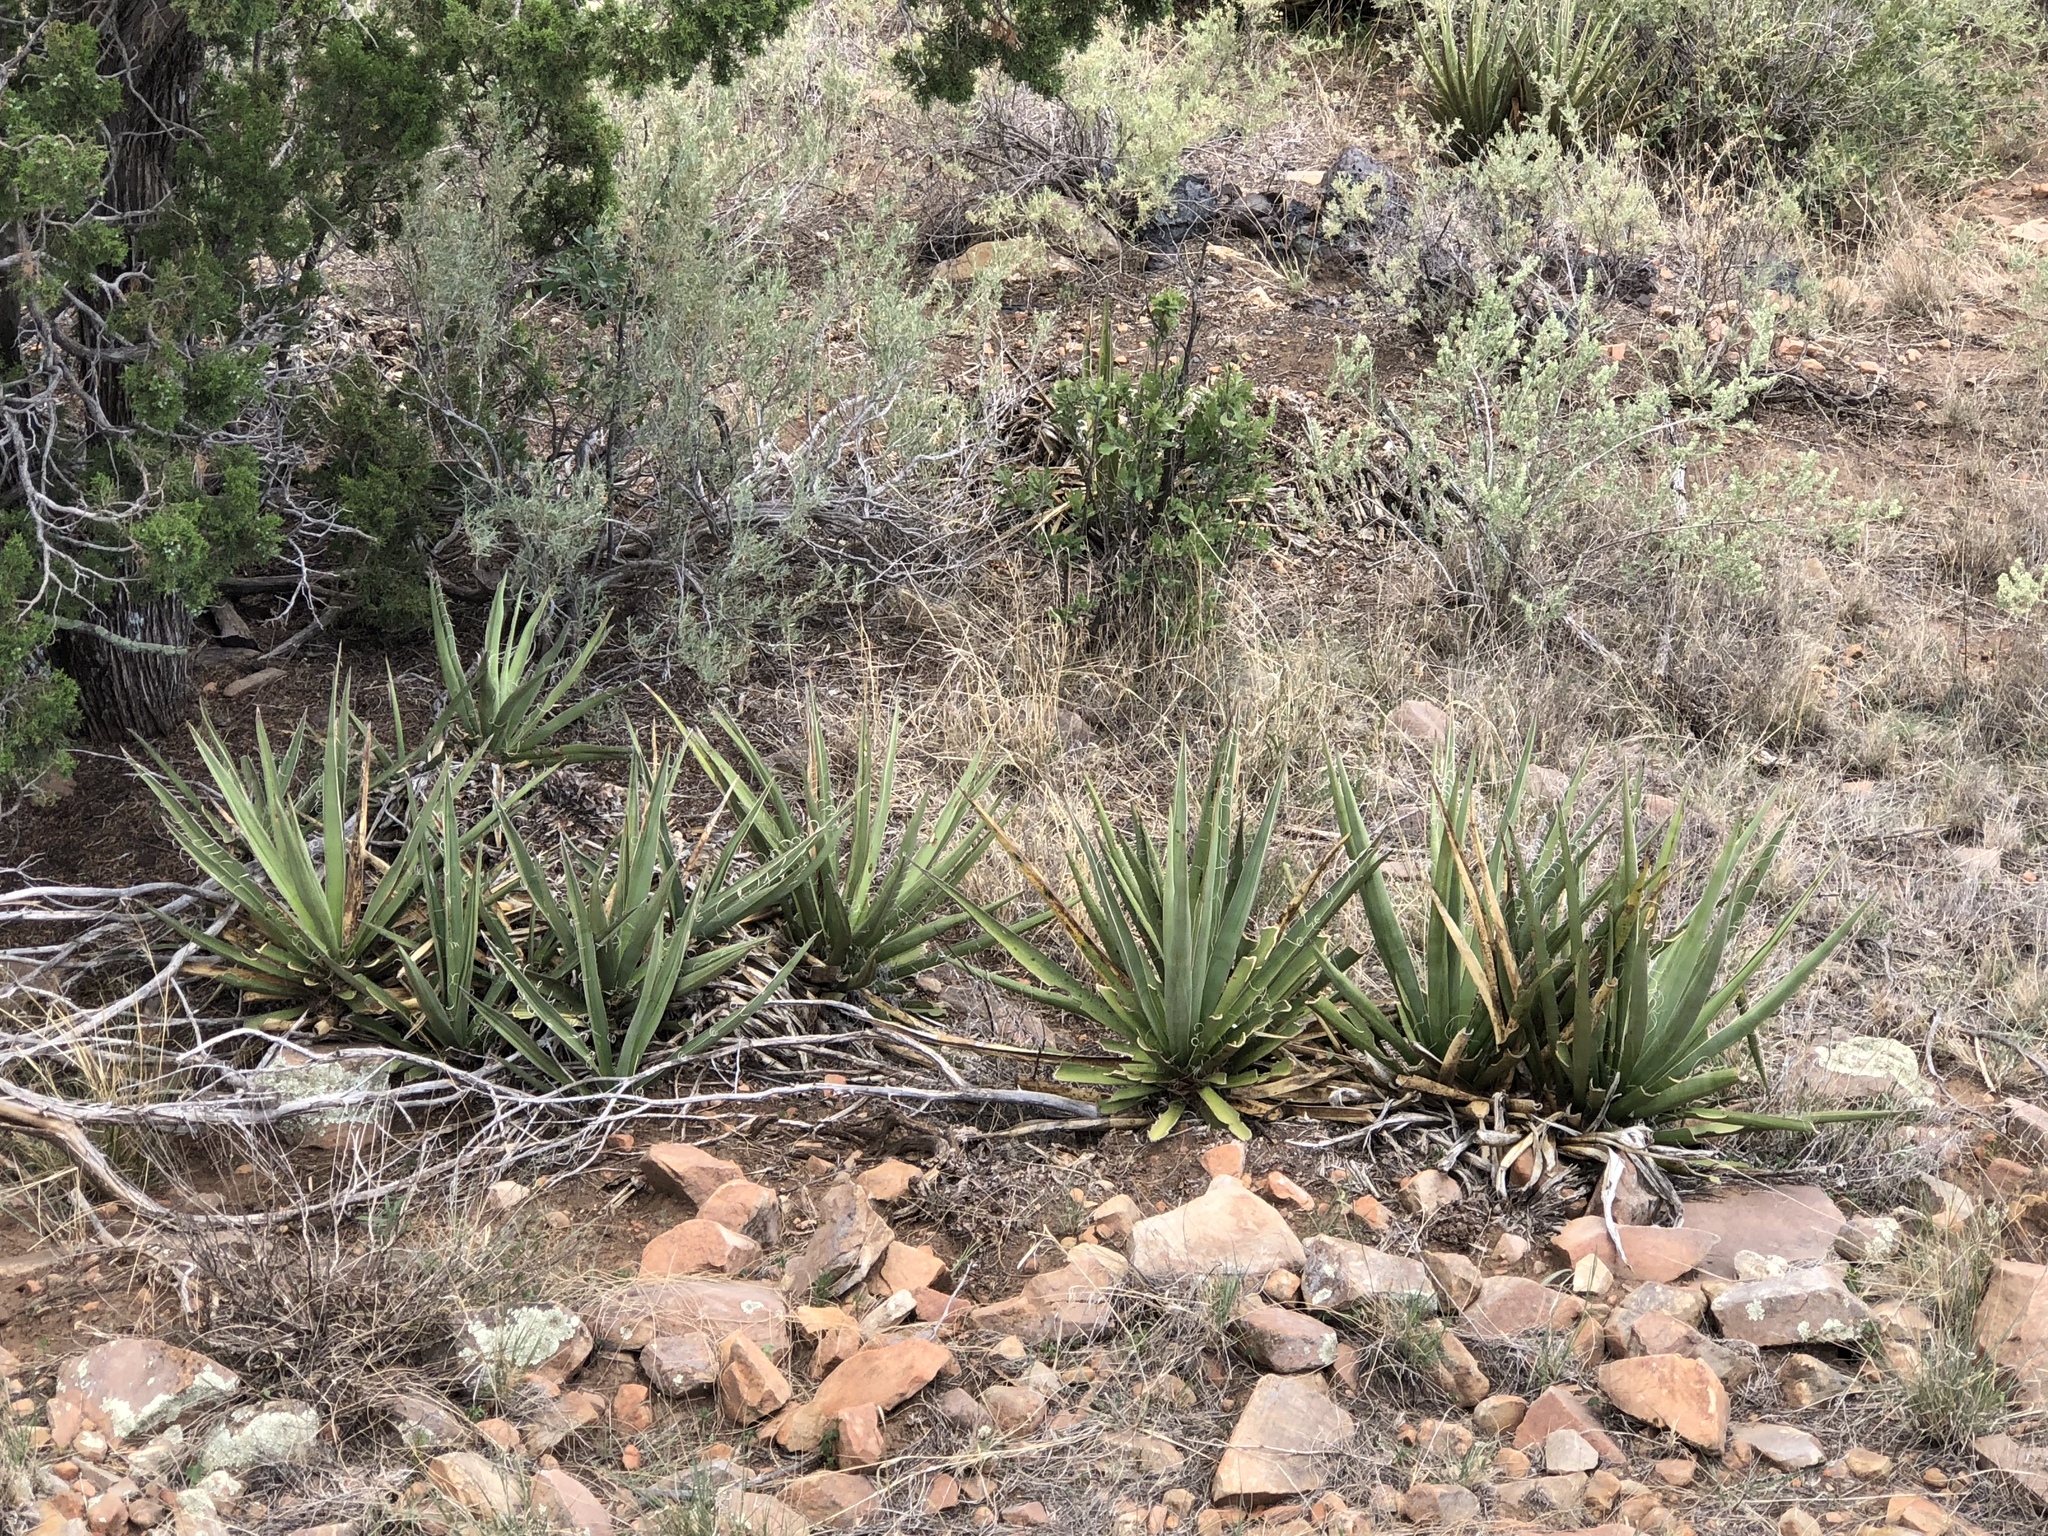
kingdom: Plantae
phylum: Tracheophyta
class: Liliopsida
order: Asparagales
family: Asparagaceae
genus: Yucca
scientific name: Yucca baccata
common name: Banana yucca
